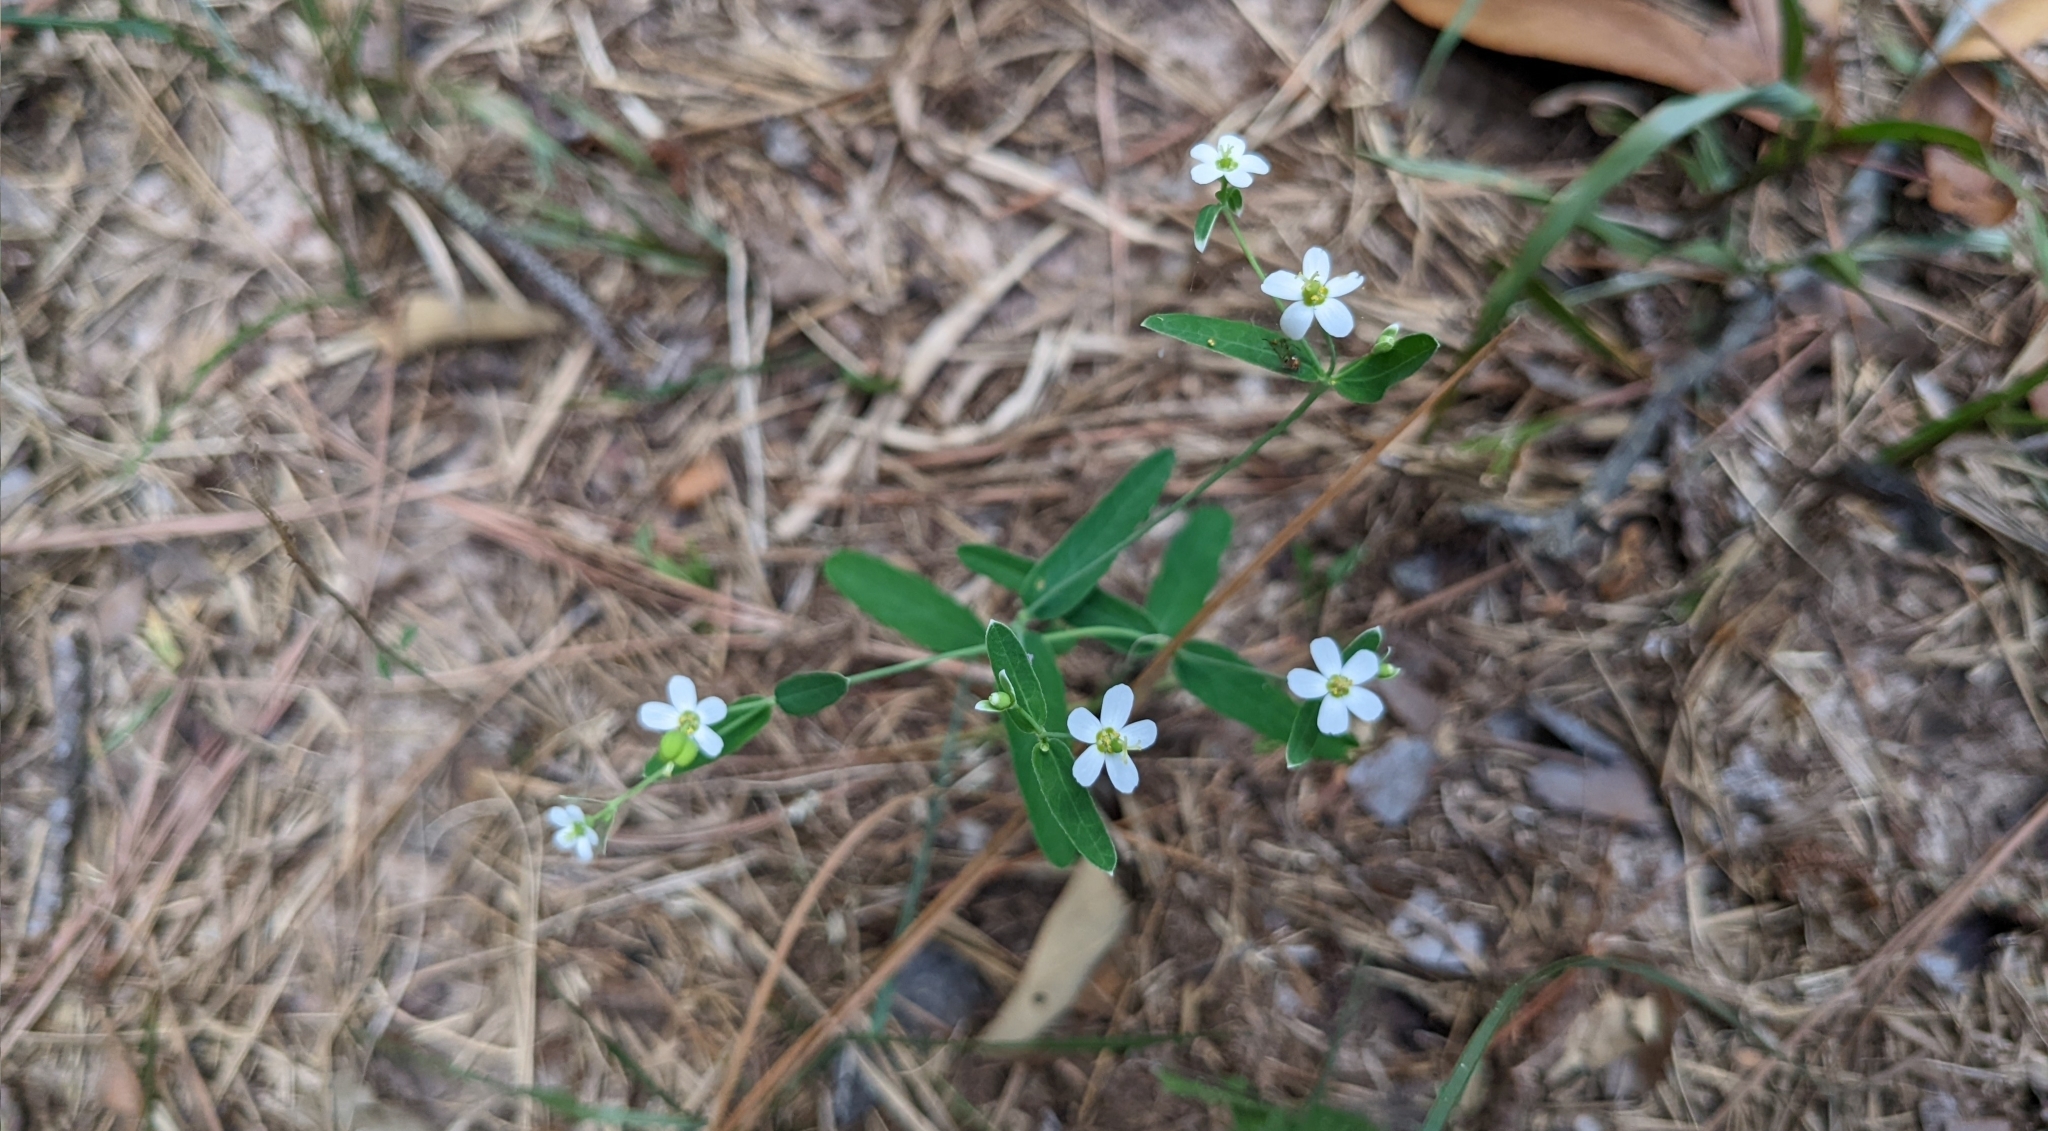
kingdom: Plantae
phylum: Tracheophyta
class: Magnoliopsida
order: Malpighiales
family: Euphorbiaceae
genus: Euphorbia
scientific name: Euphorbia corollata
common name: Flowering spurge
